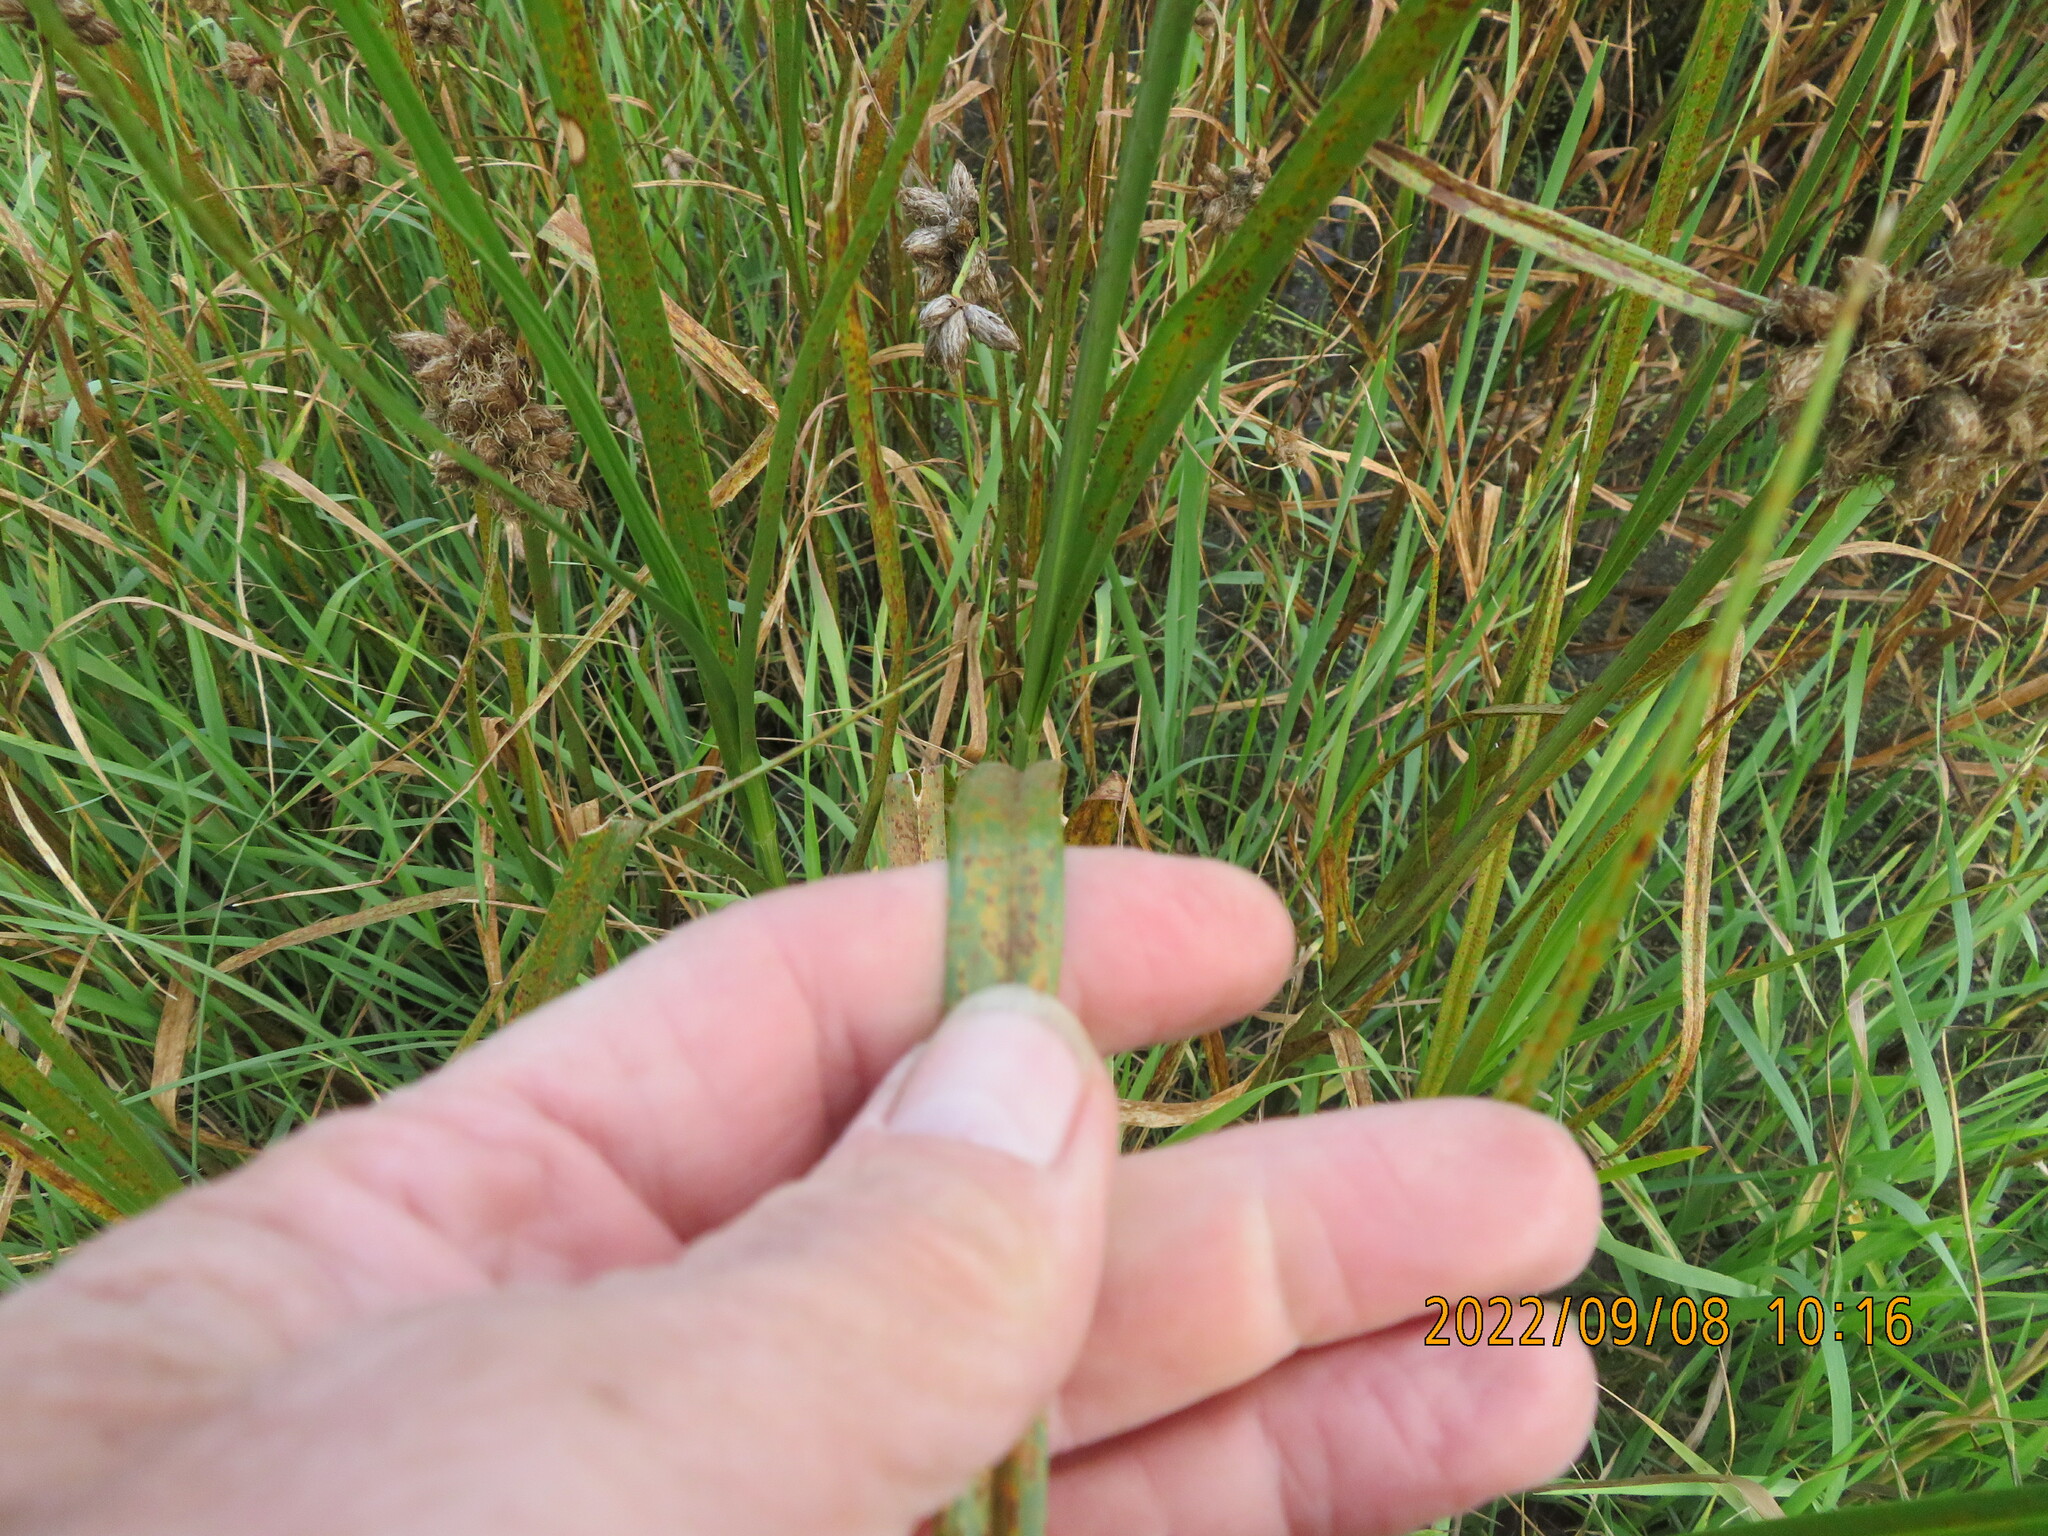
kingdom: Plantae
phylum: Tracheophyta
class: Liliopsida
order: Poales
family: Cyperaceae
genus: Bolboschoenus
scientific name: Bolboschoenus maritimus
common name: Sea club-rush
